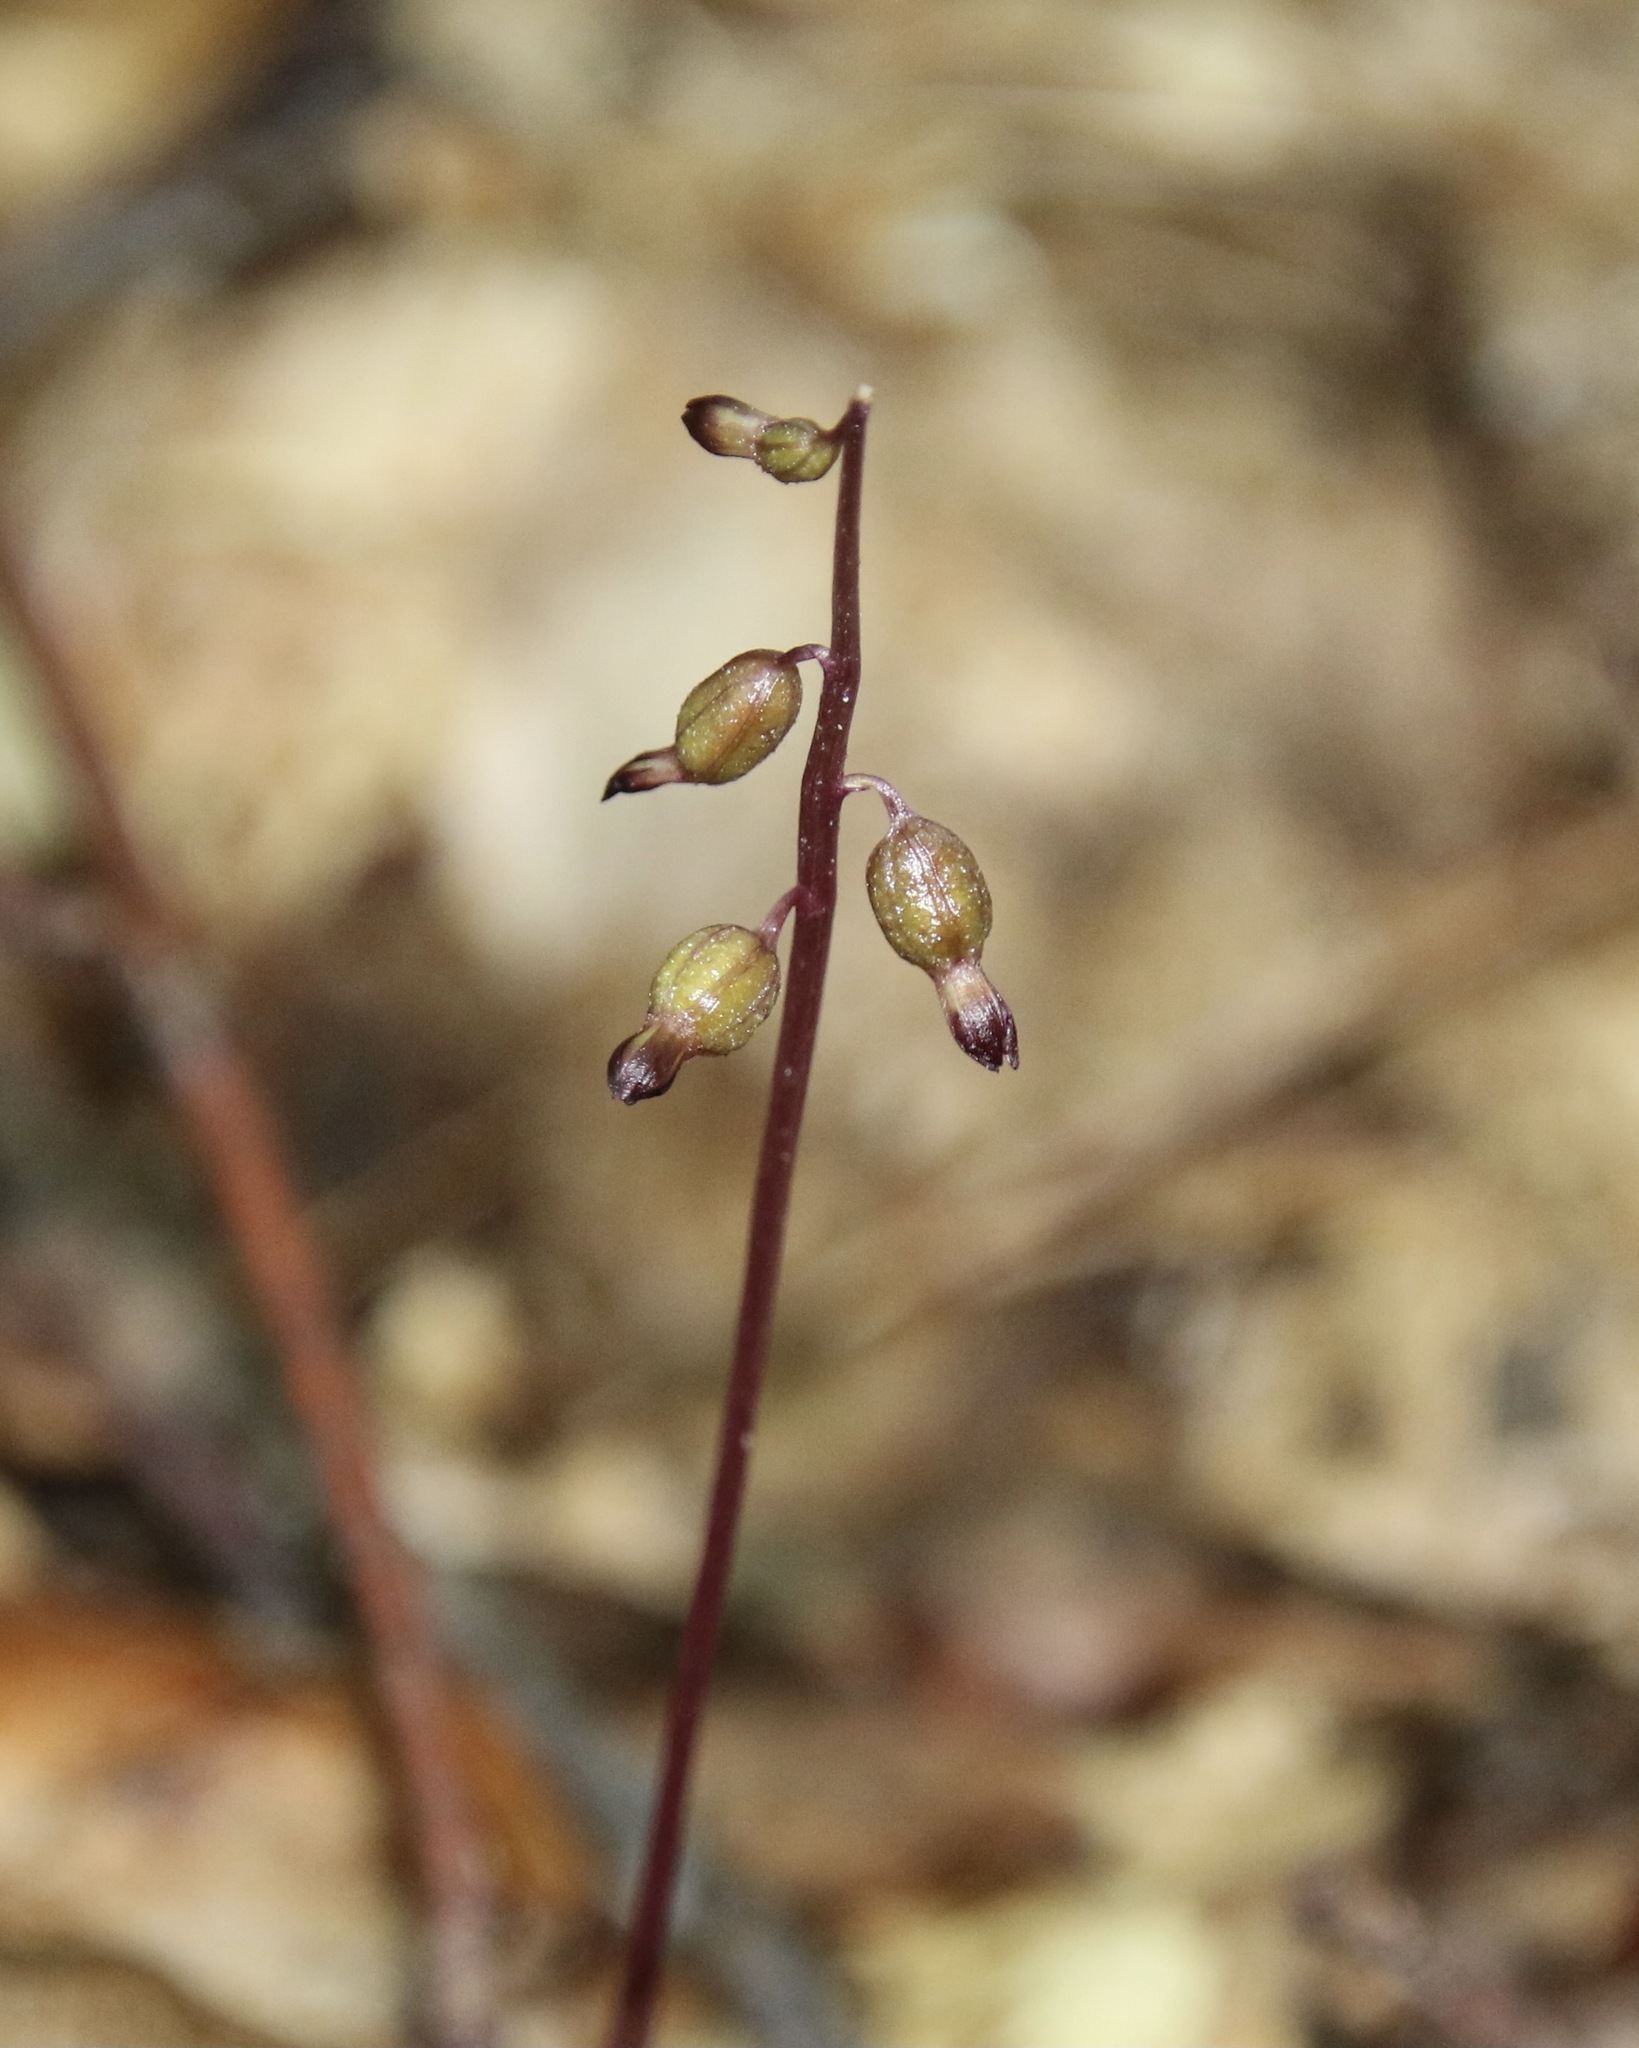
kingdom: Plantae
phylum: Tracheophyta
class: Liliopsida
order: Asparagales
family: Orchidaceae
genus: Corallorhiza
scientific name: Corallorhiza odontorhiza
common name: Autumn coralroot
